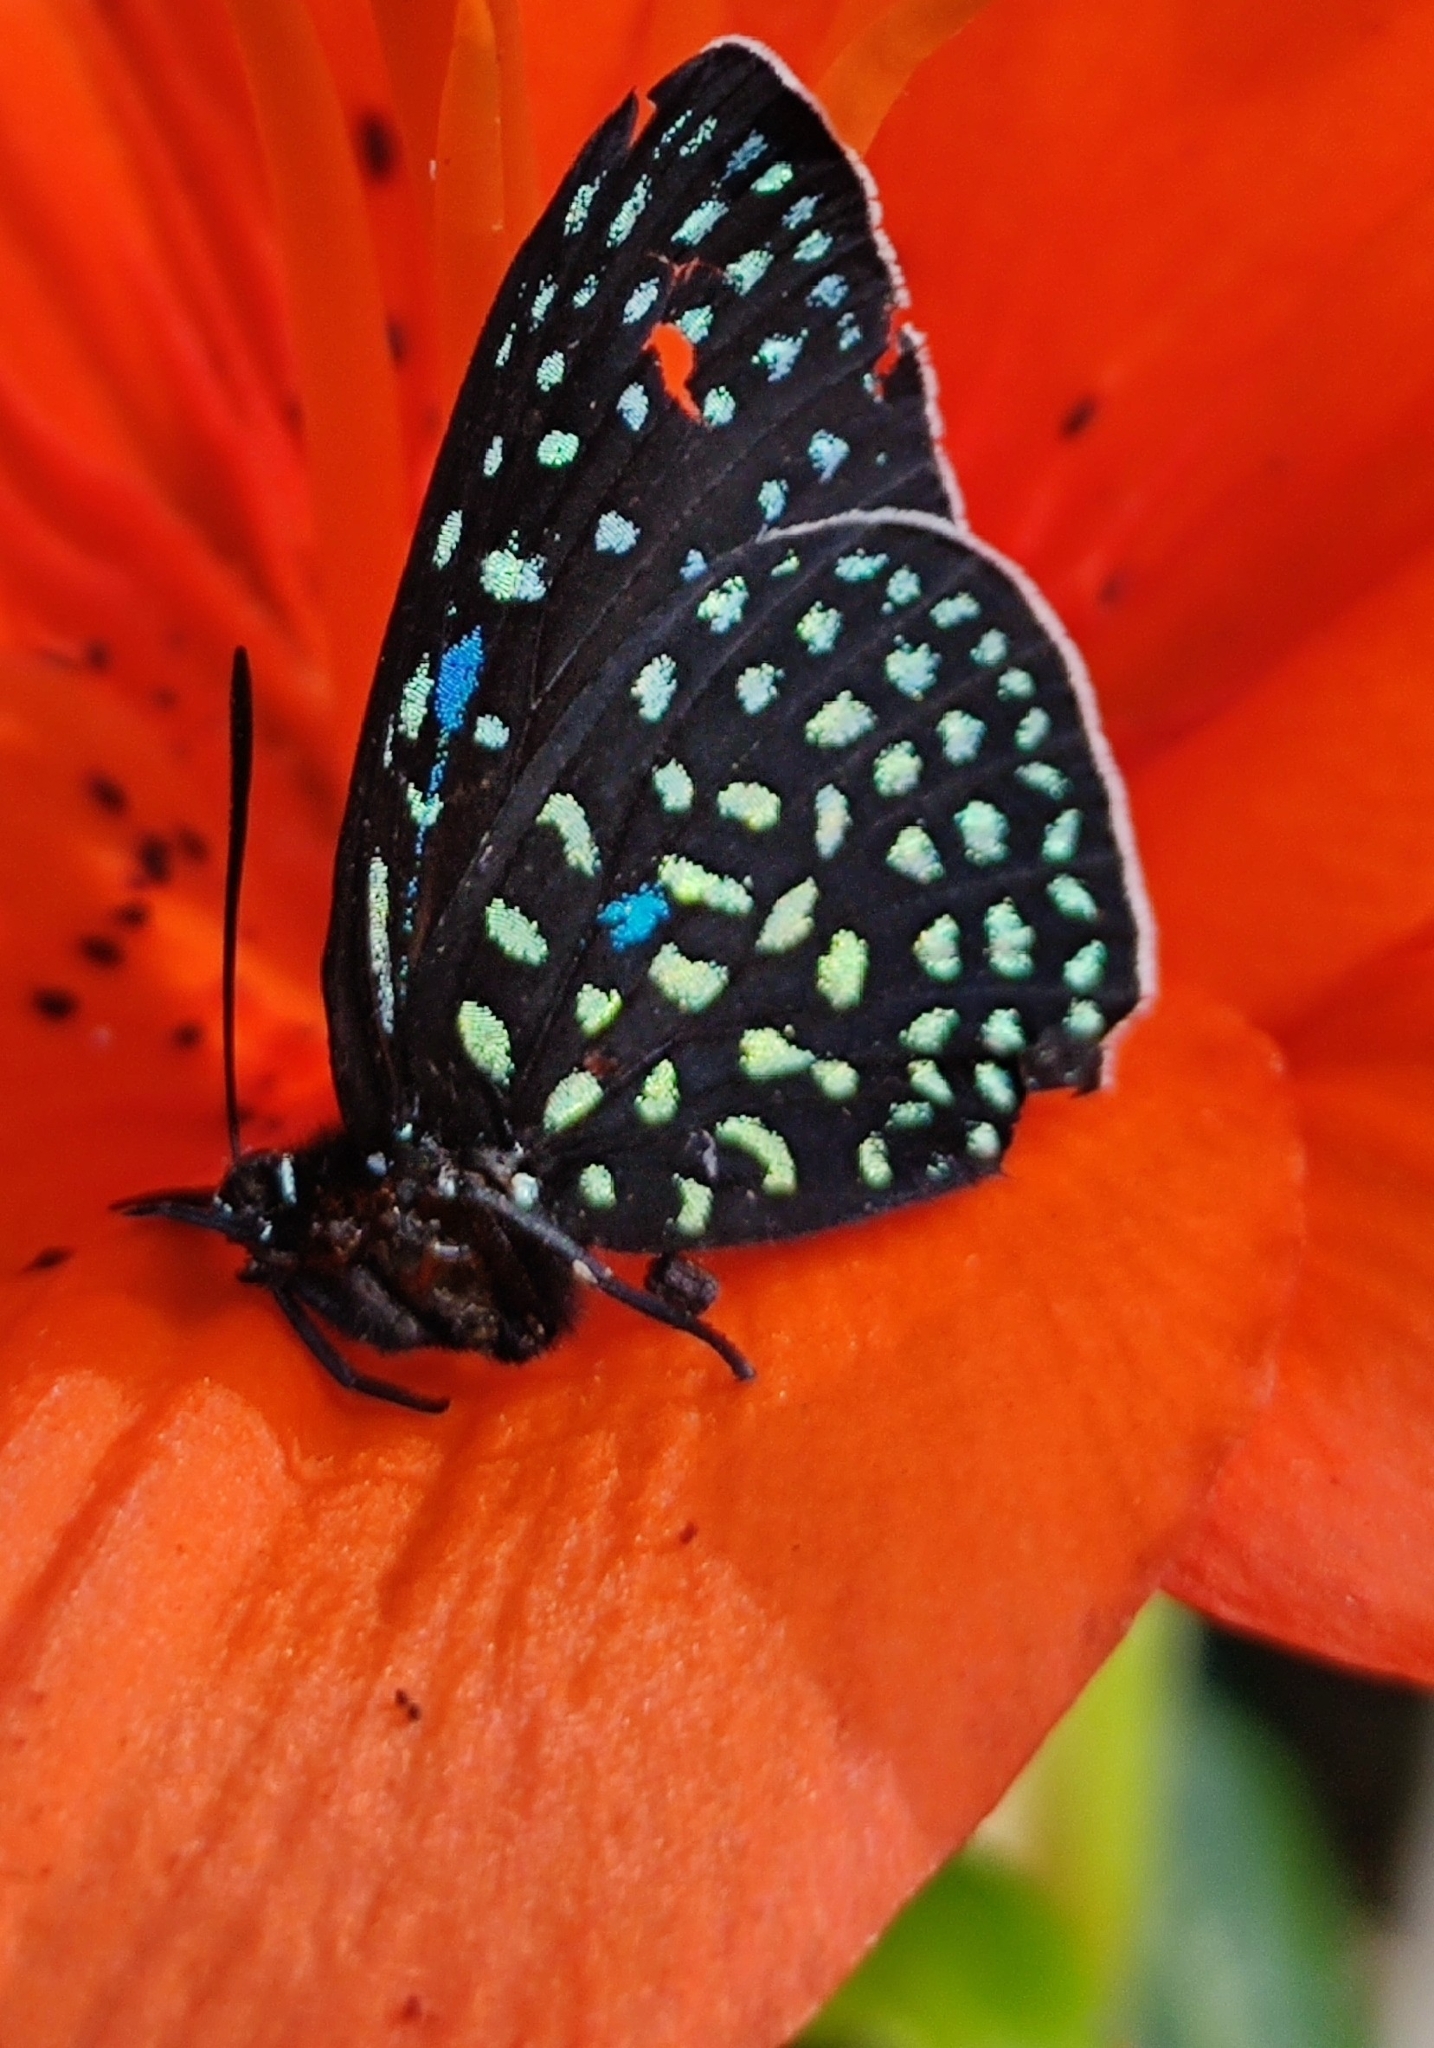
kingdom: Animalia
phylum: Arthropoda
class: Insecta
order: Lepidoptera
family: Lycaenidae
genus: Eumaeus
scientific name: Eumaeus childrenae
